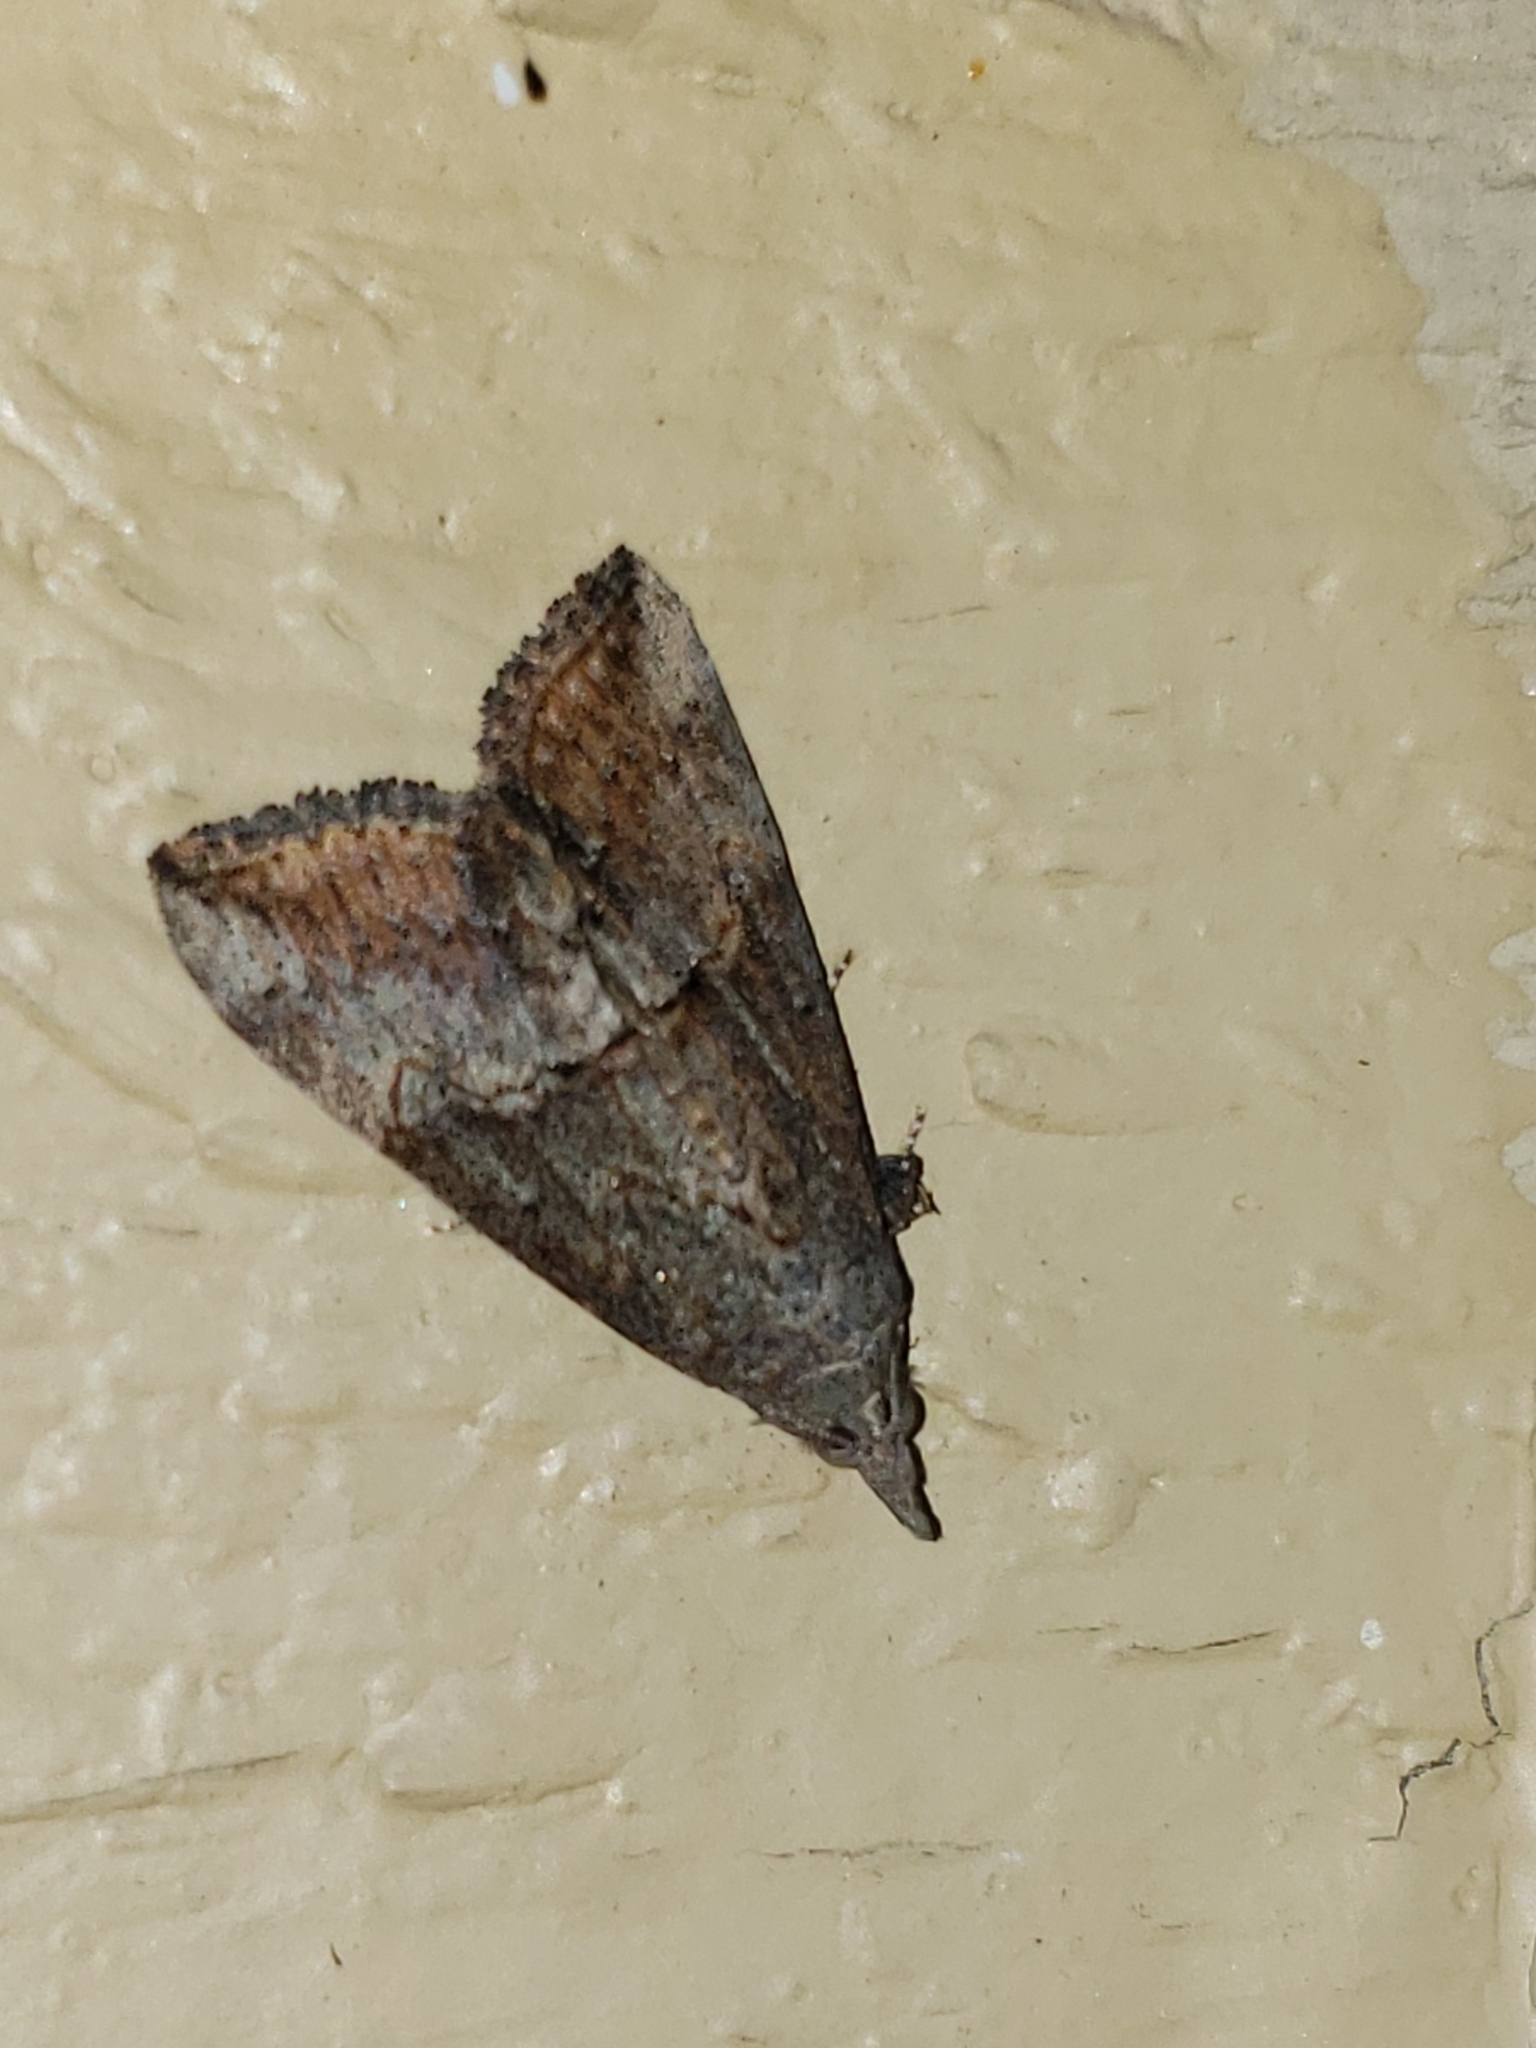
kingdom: Animalia
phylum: Arthropoda
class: Insecta
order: Lepidoptera
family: Erebidae
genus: Hypena
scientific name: Hypena scabra
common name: Green cloverworm
